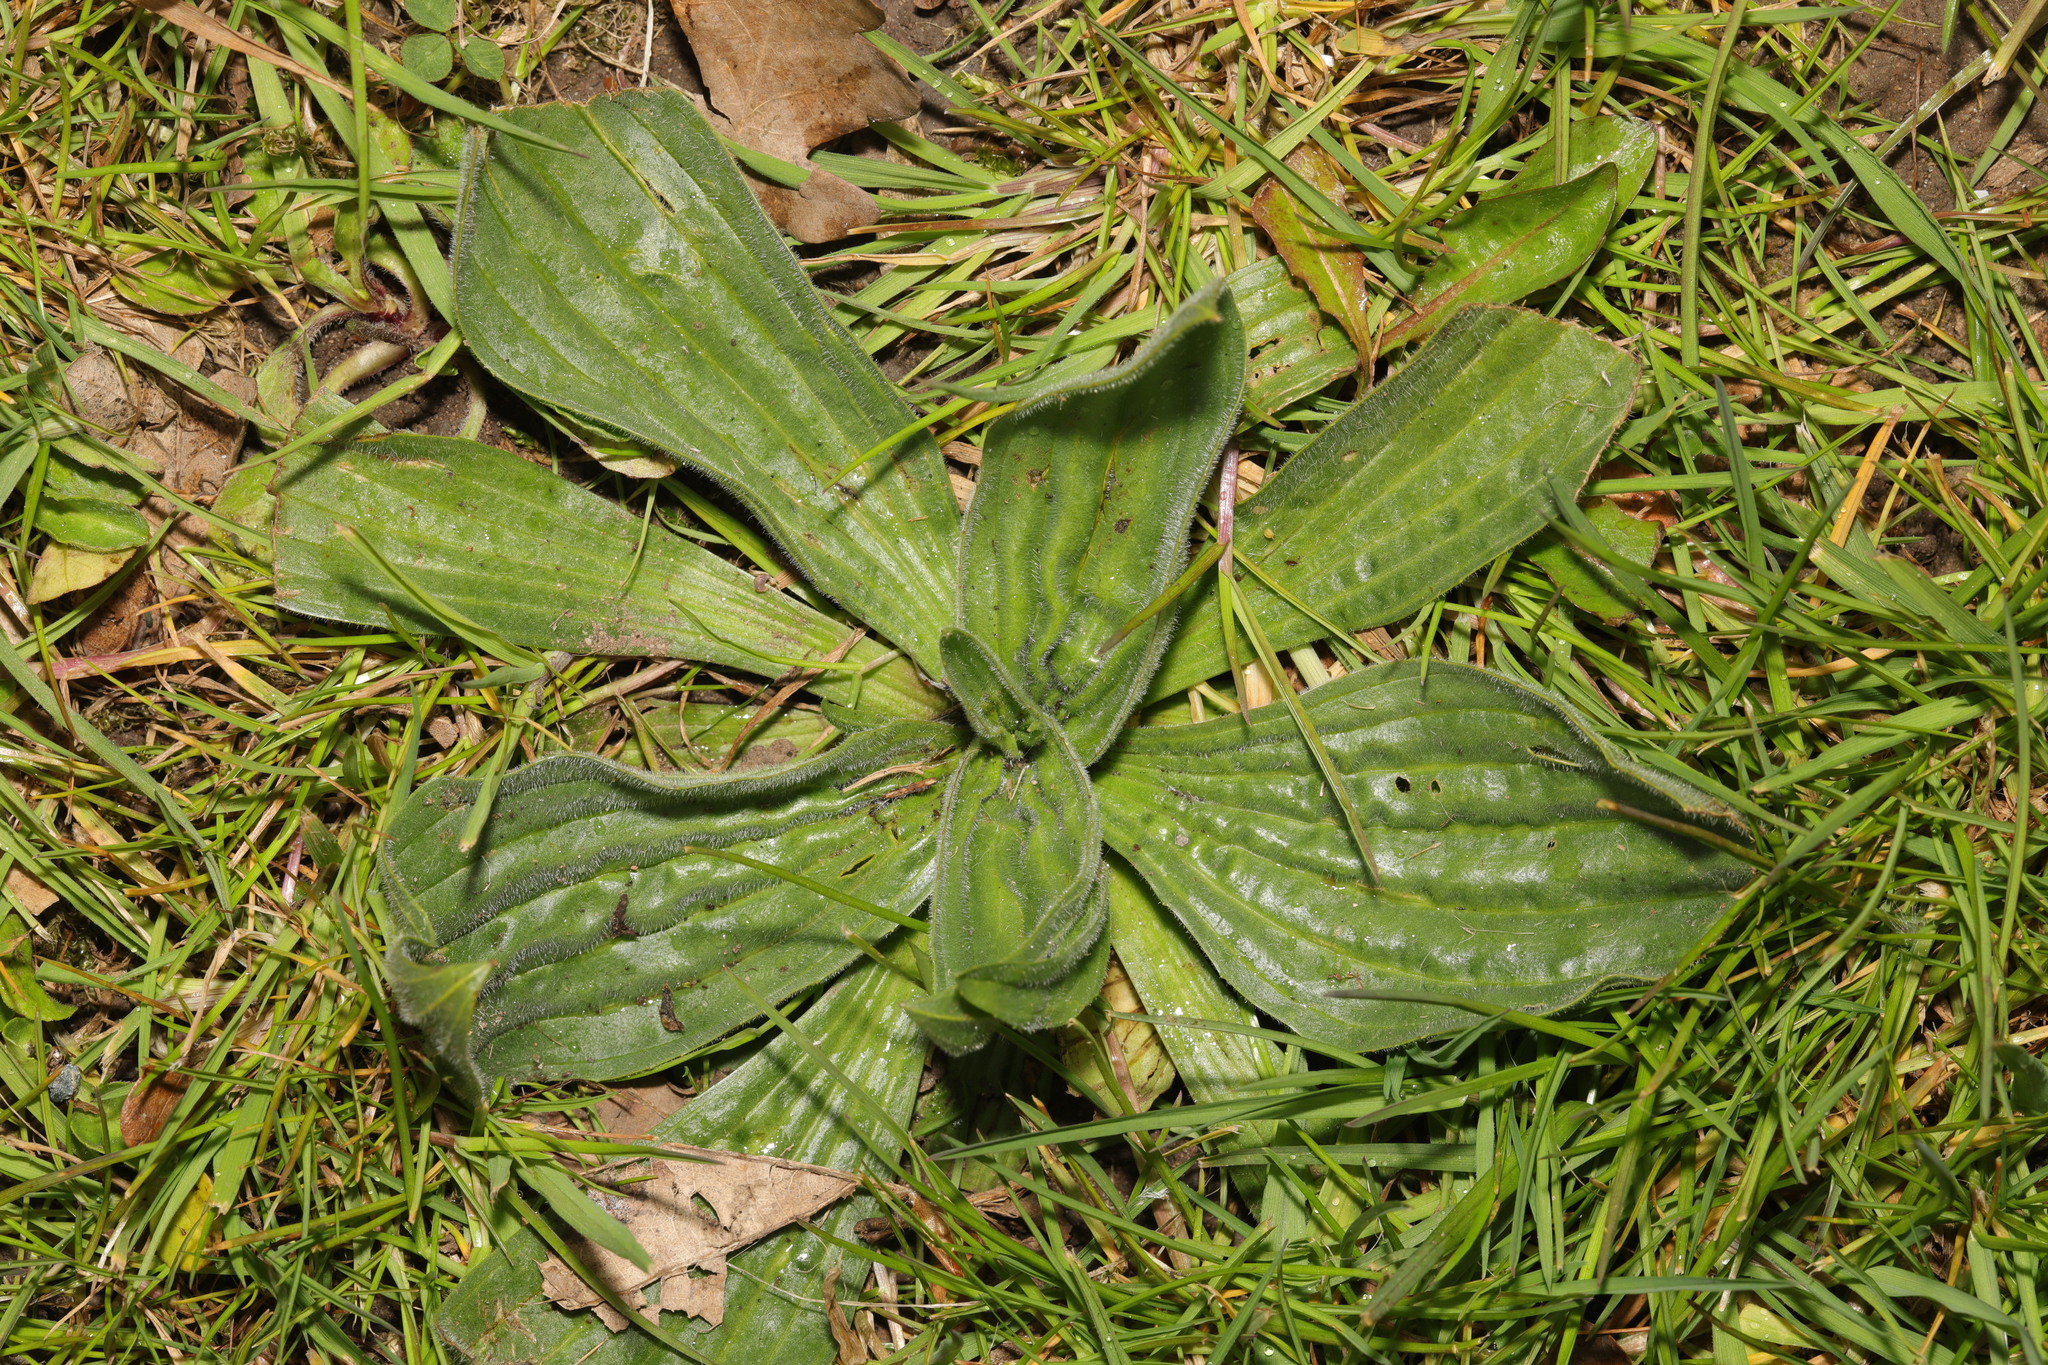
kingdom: Plantae
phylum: Tracheophyta
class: Magnoliopsida
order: Lamiales
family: Plantaginaceae
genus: Plantago
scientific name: Plantago media
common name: Hoary plantain
